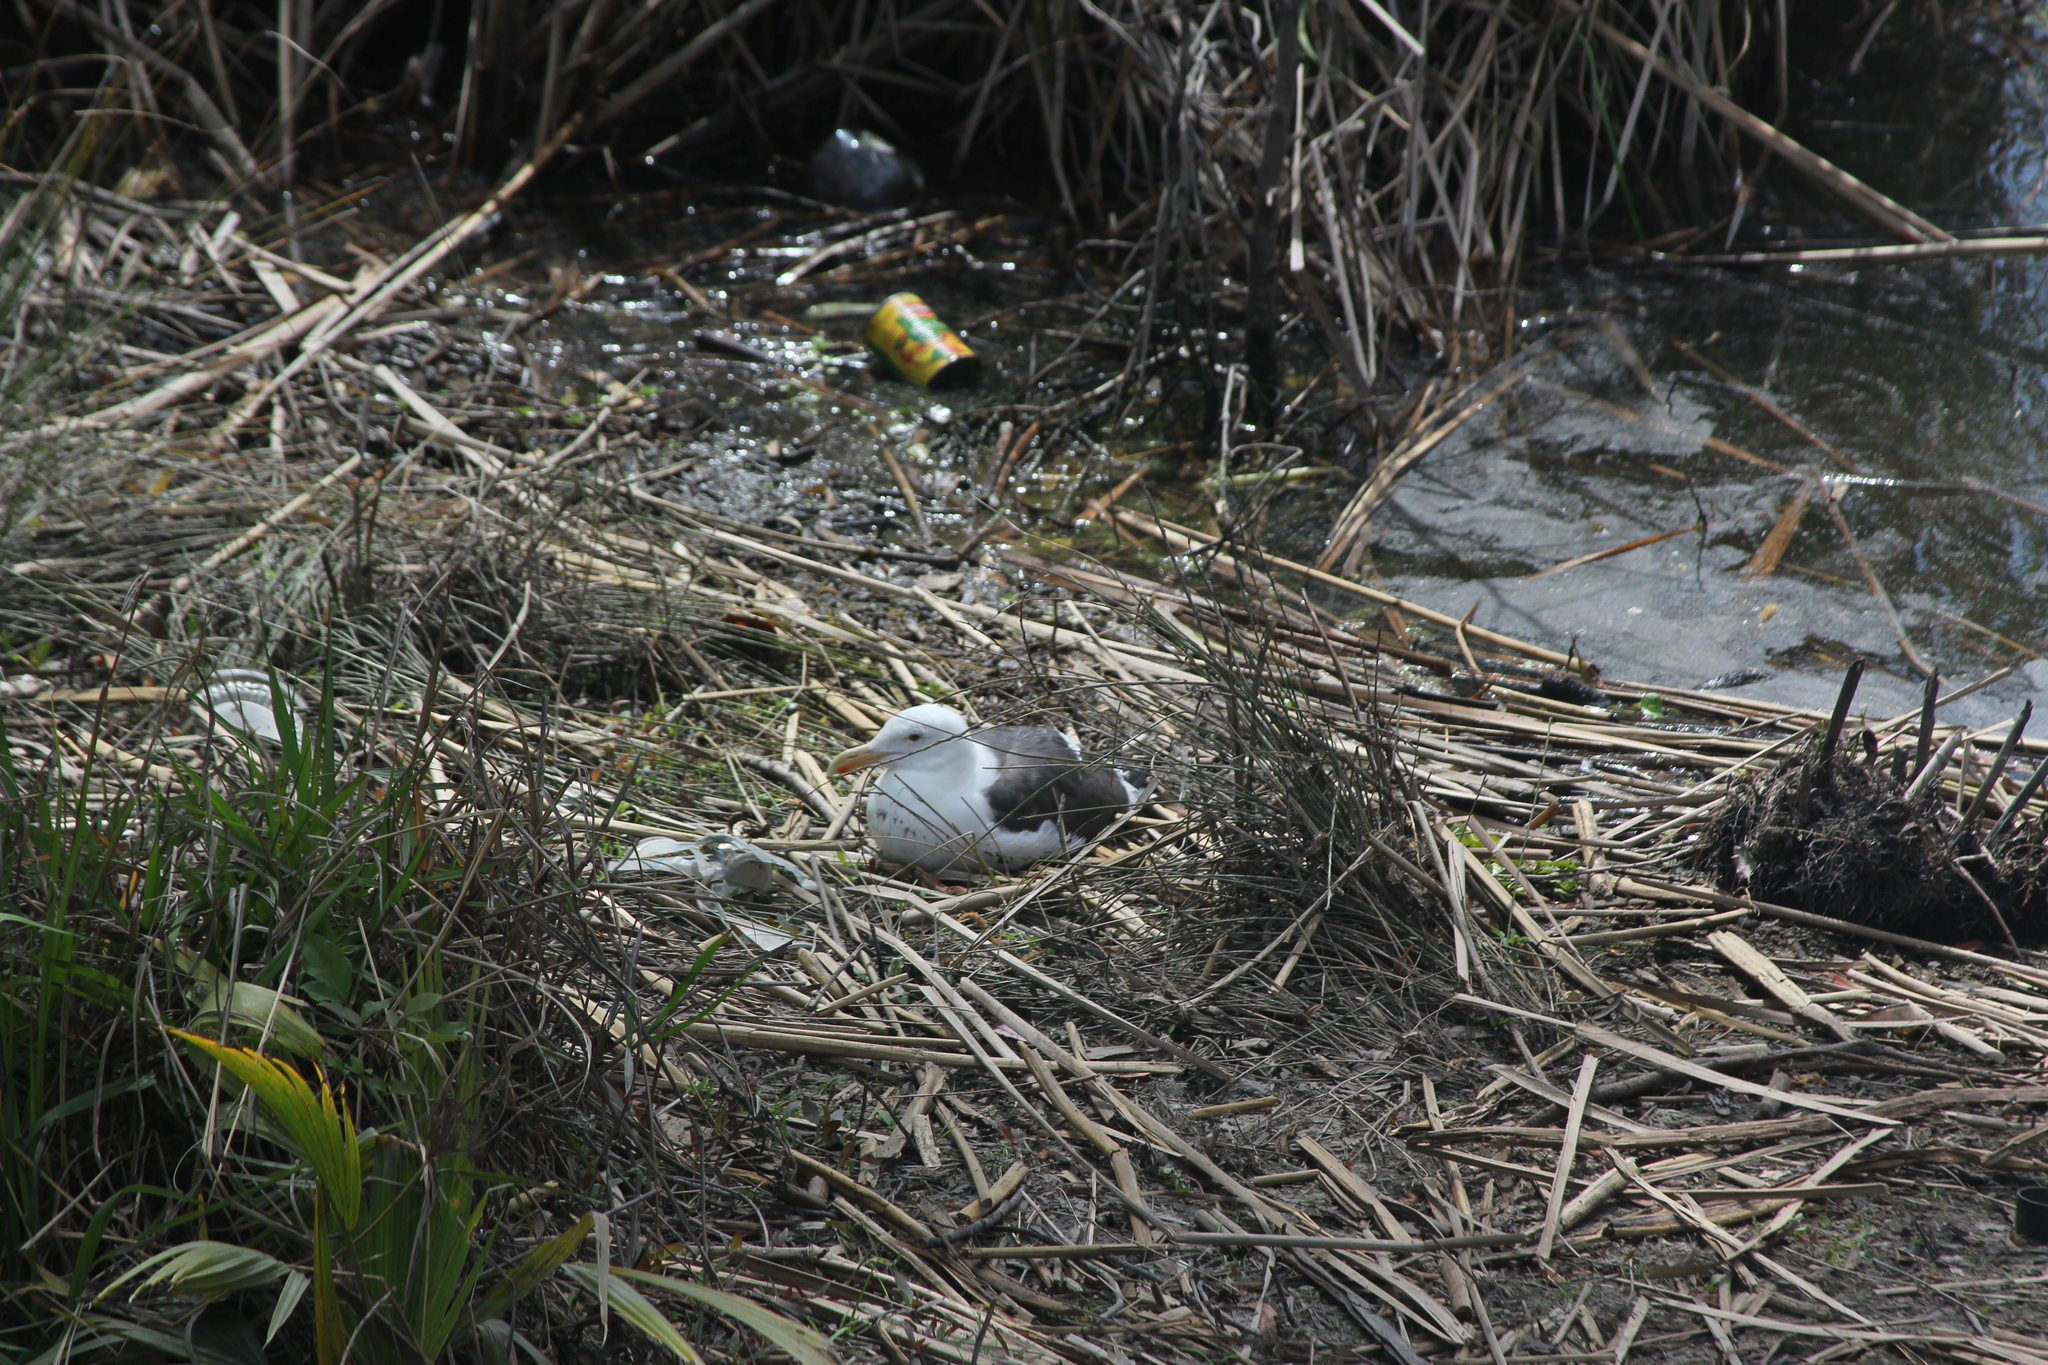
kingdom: Animalia
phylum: Chordata
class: Aves
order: Charadriiformes
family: Laridae
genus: Larus
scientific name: Larus occidentalis
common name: Western gull
